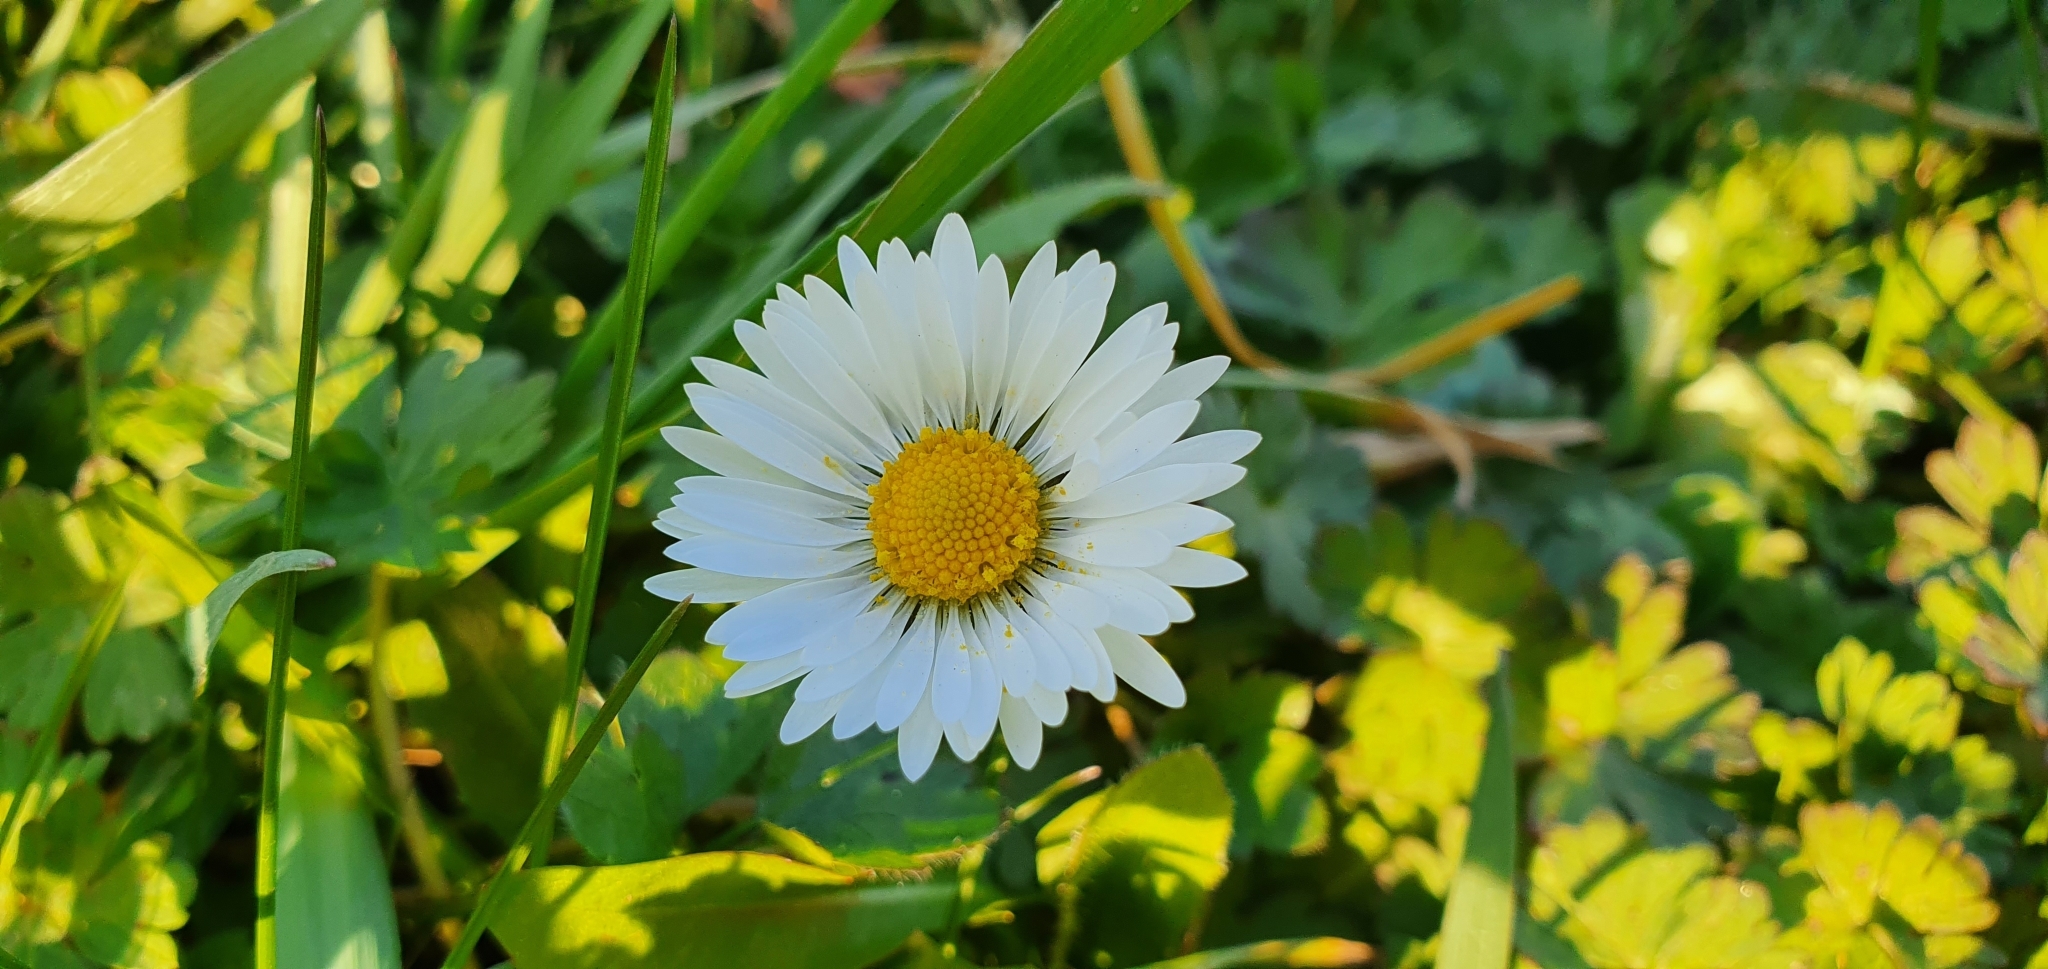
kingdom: Plantae
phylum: Tracheophyta
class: Magnoliopsida
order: Asterales
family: Asteraceae
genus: Bellis
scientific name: Bellis perennis
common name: Lawndaisy
